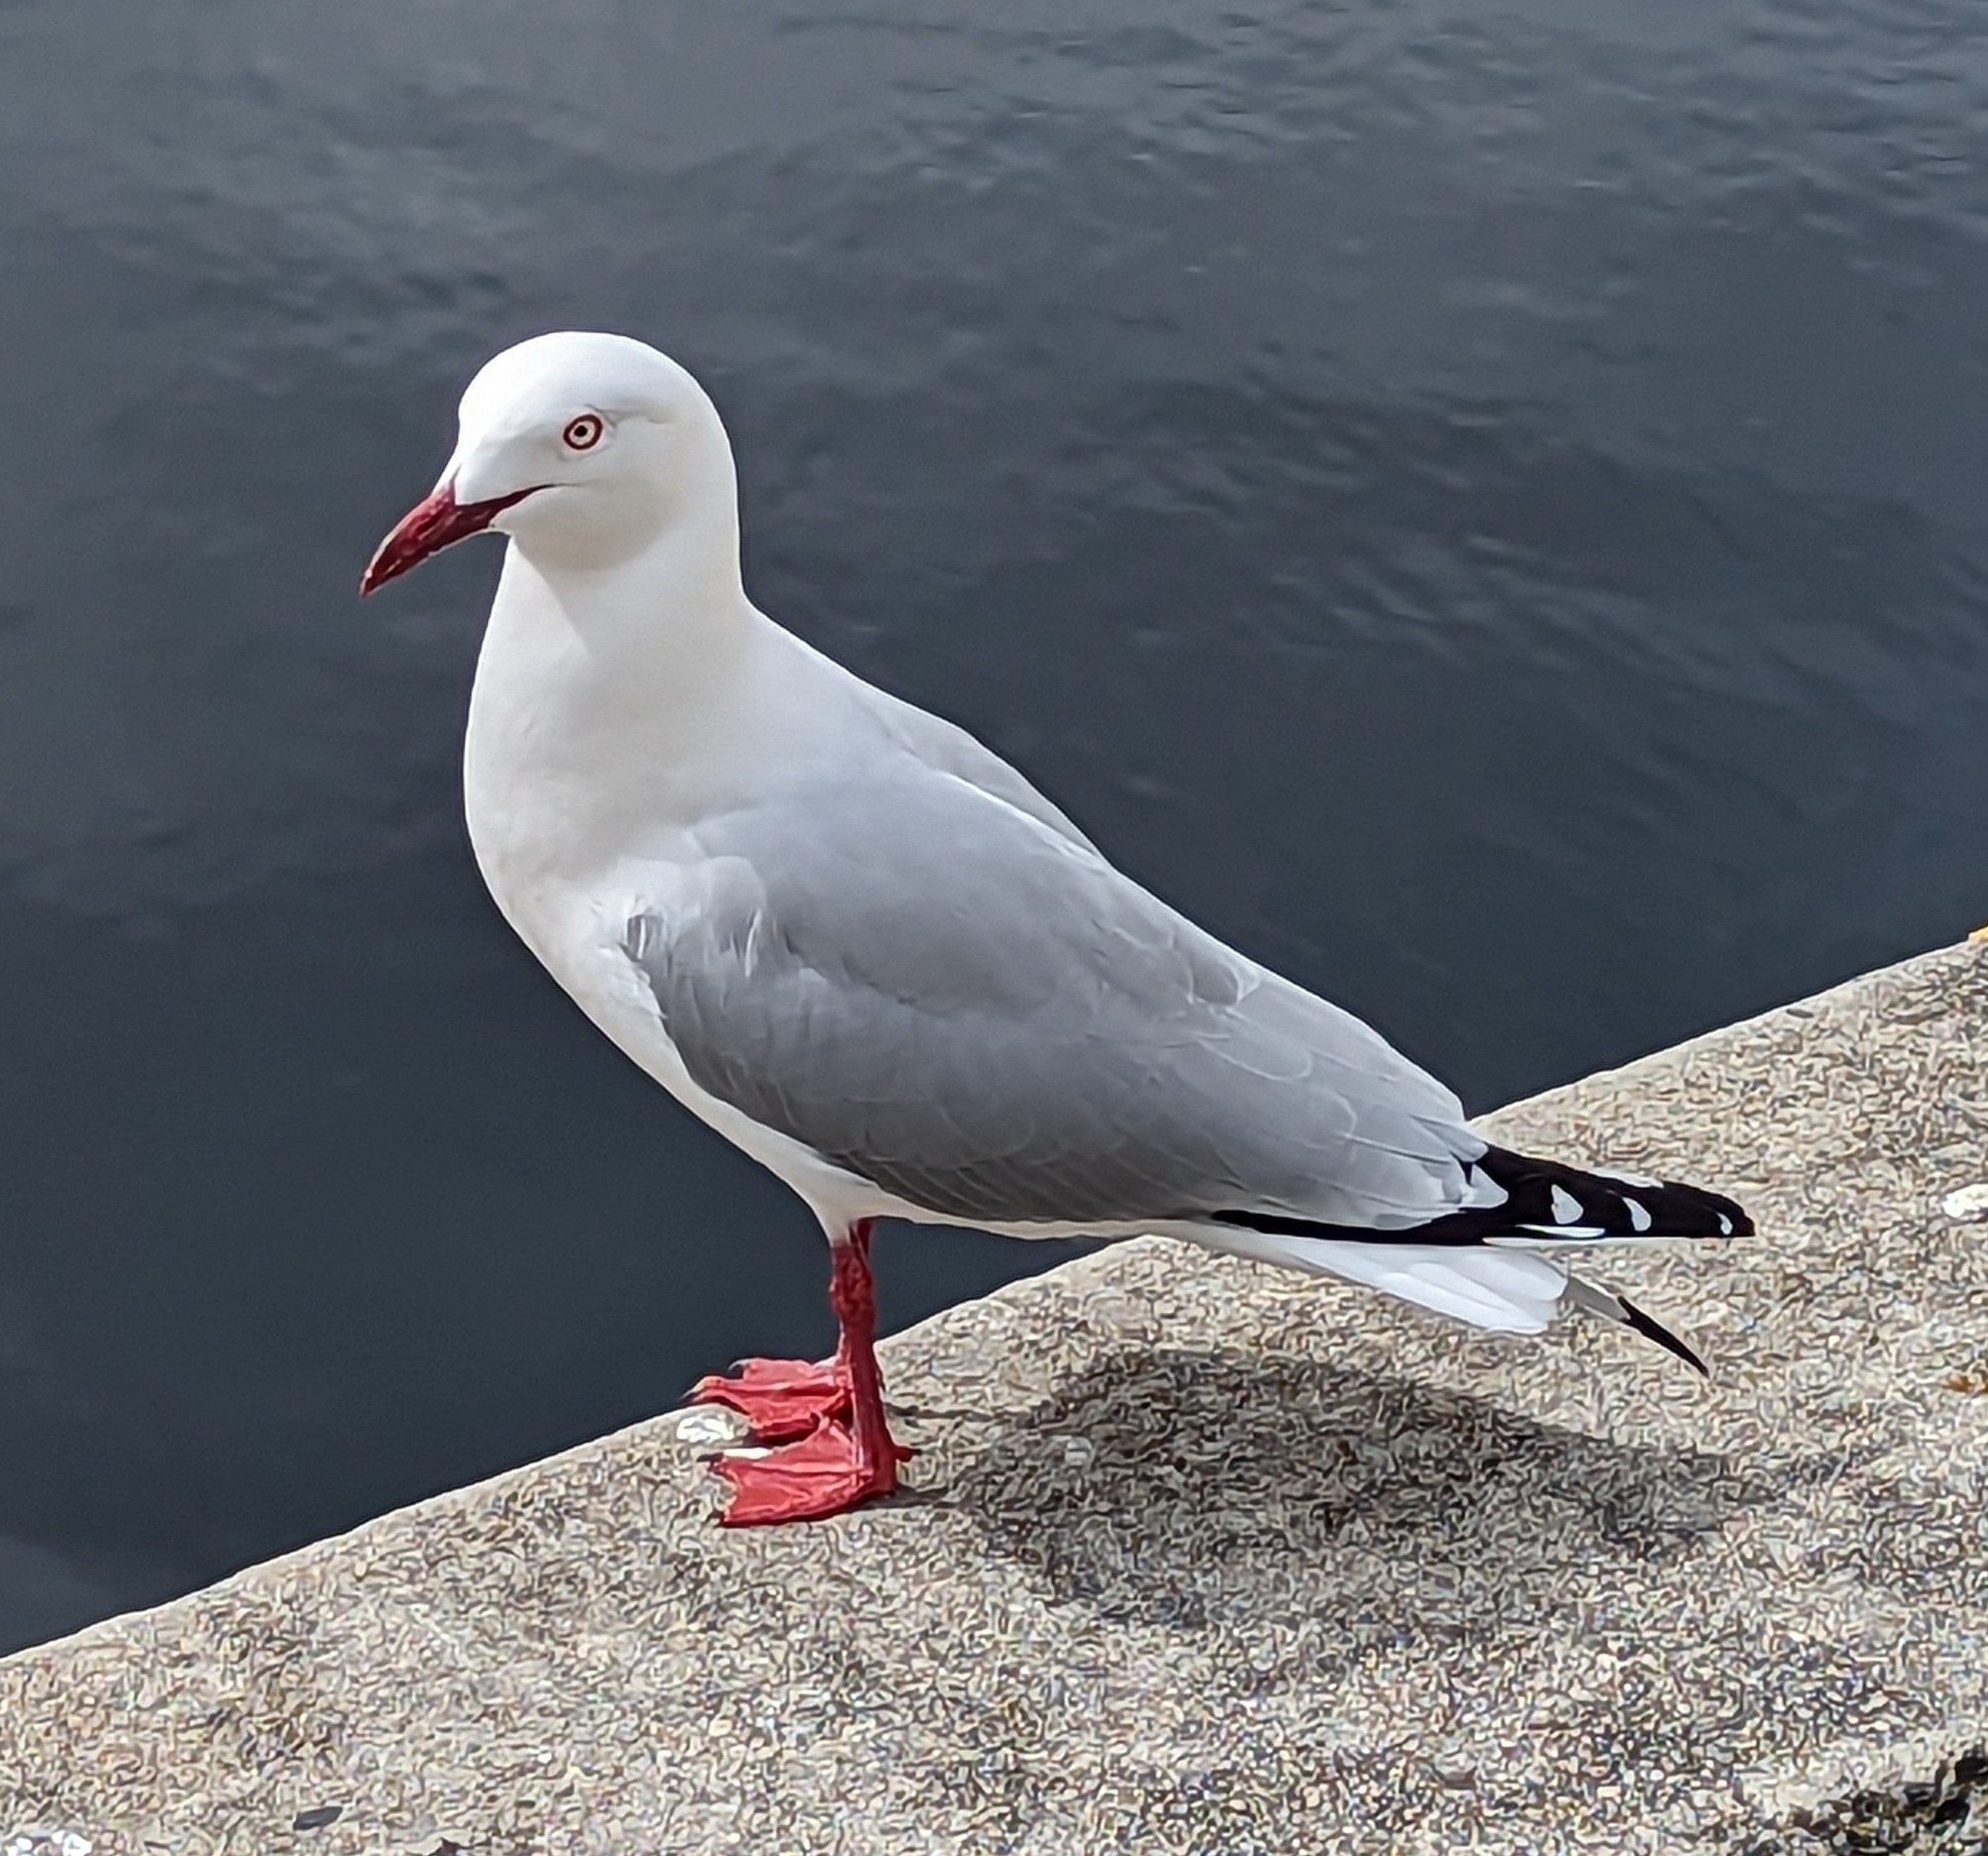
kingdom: Animalia
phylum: Chordata
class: Aves
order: Charadriiformes
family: Laridae
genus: Chroicocephalus
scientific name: Chroicocephalus novaehollandiae
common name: Silver gull
